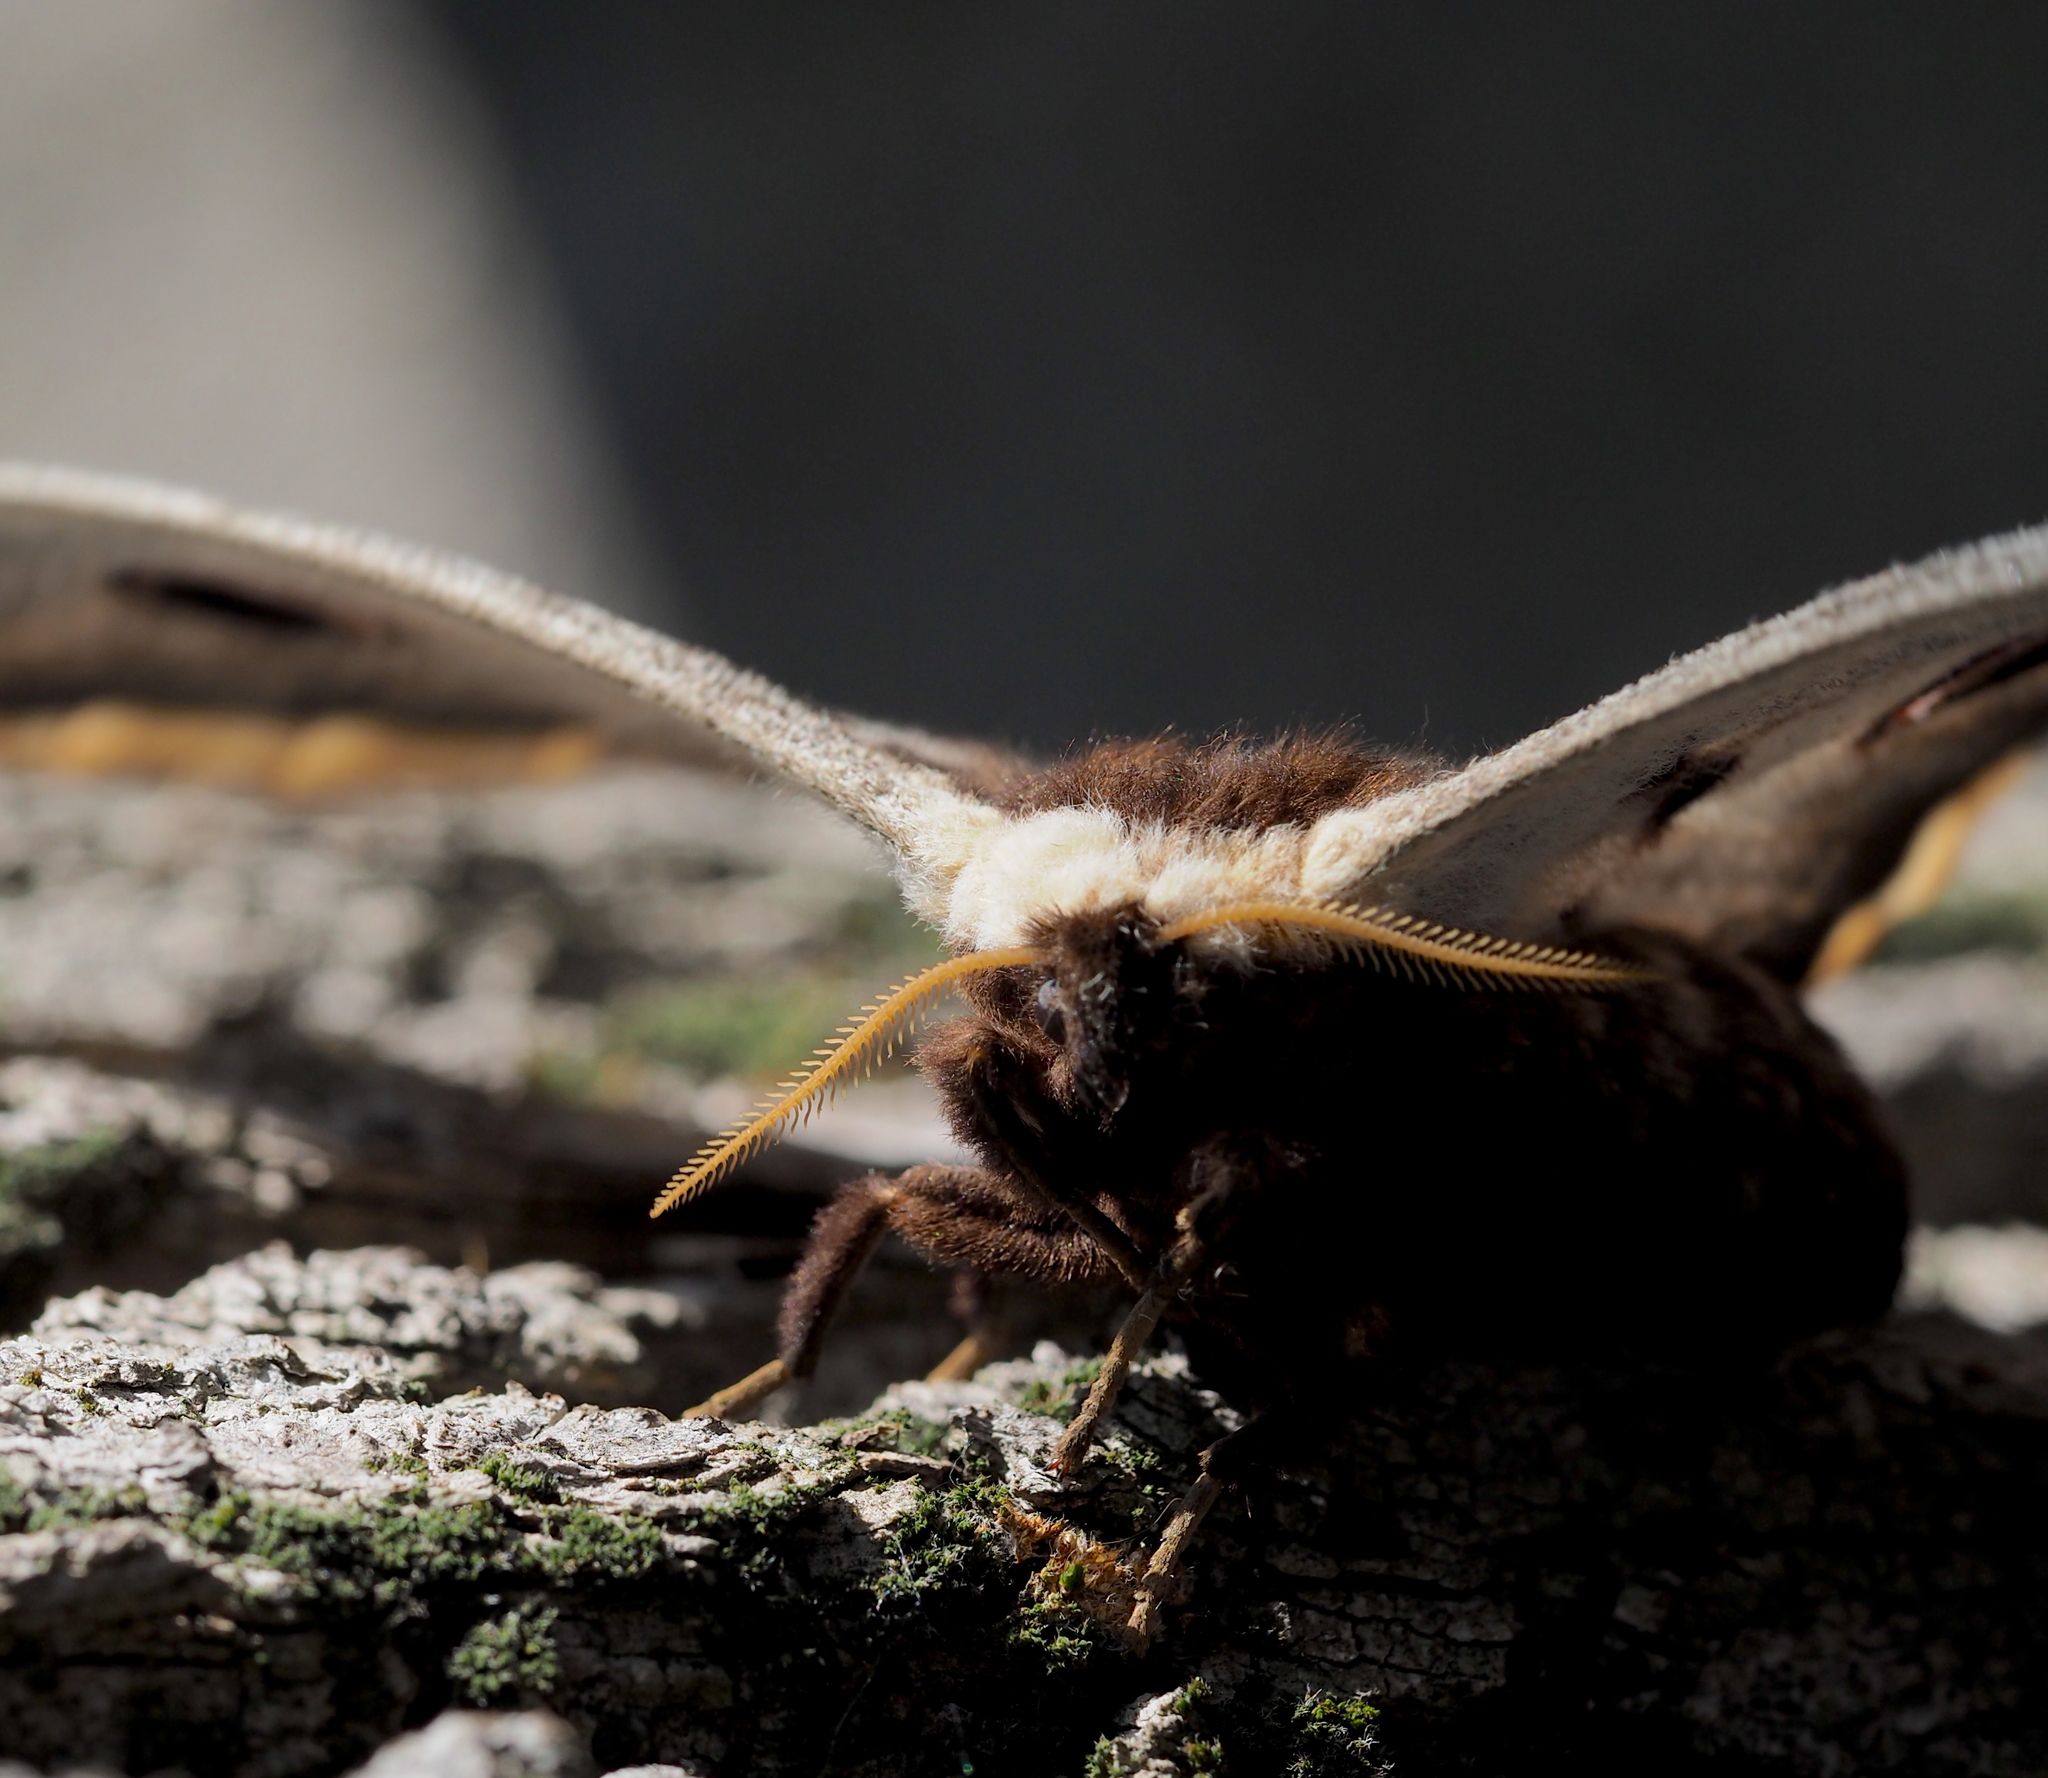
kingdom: Animalia
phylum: Arthropoda
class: Insecta
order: Lepidoptera
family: Saturniidae
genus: Saturnia
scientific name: Saturnia pyri
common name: Great peacock moth
